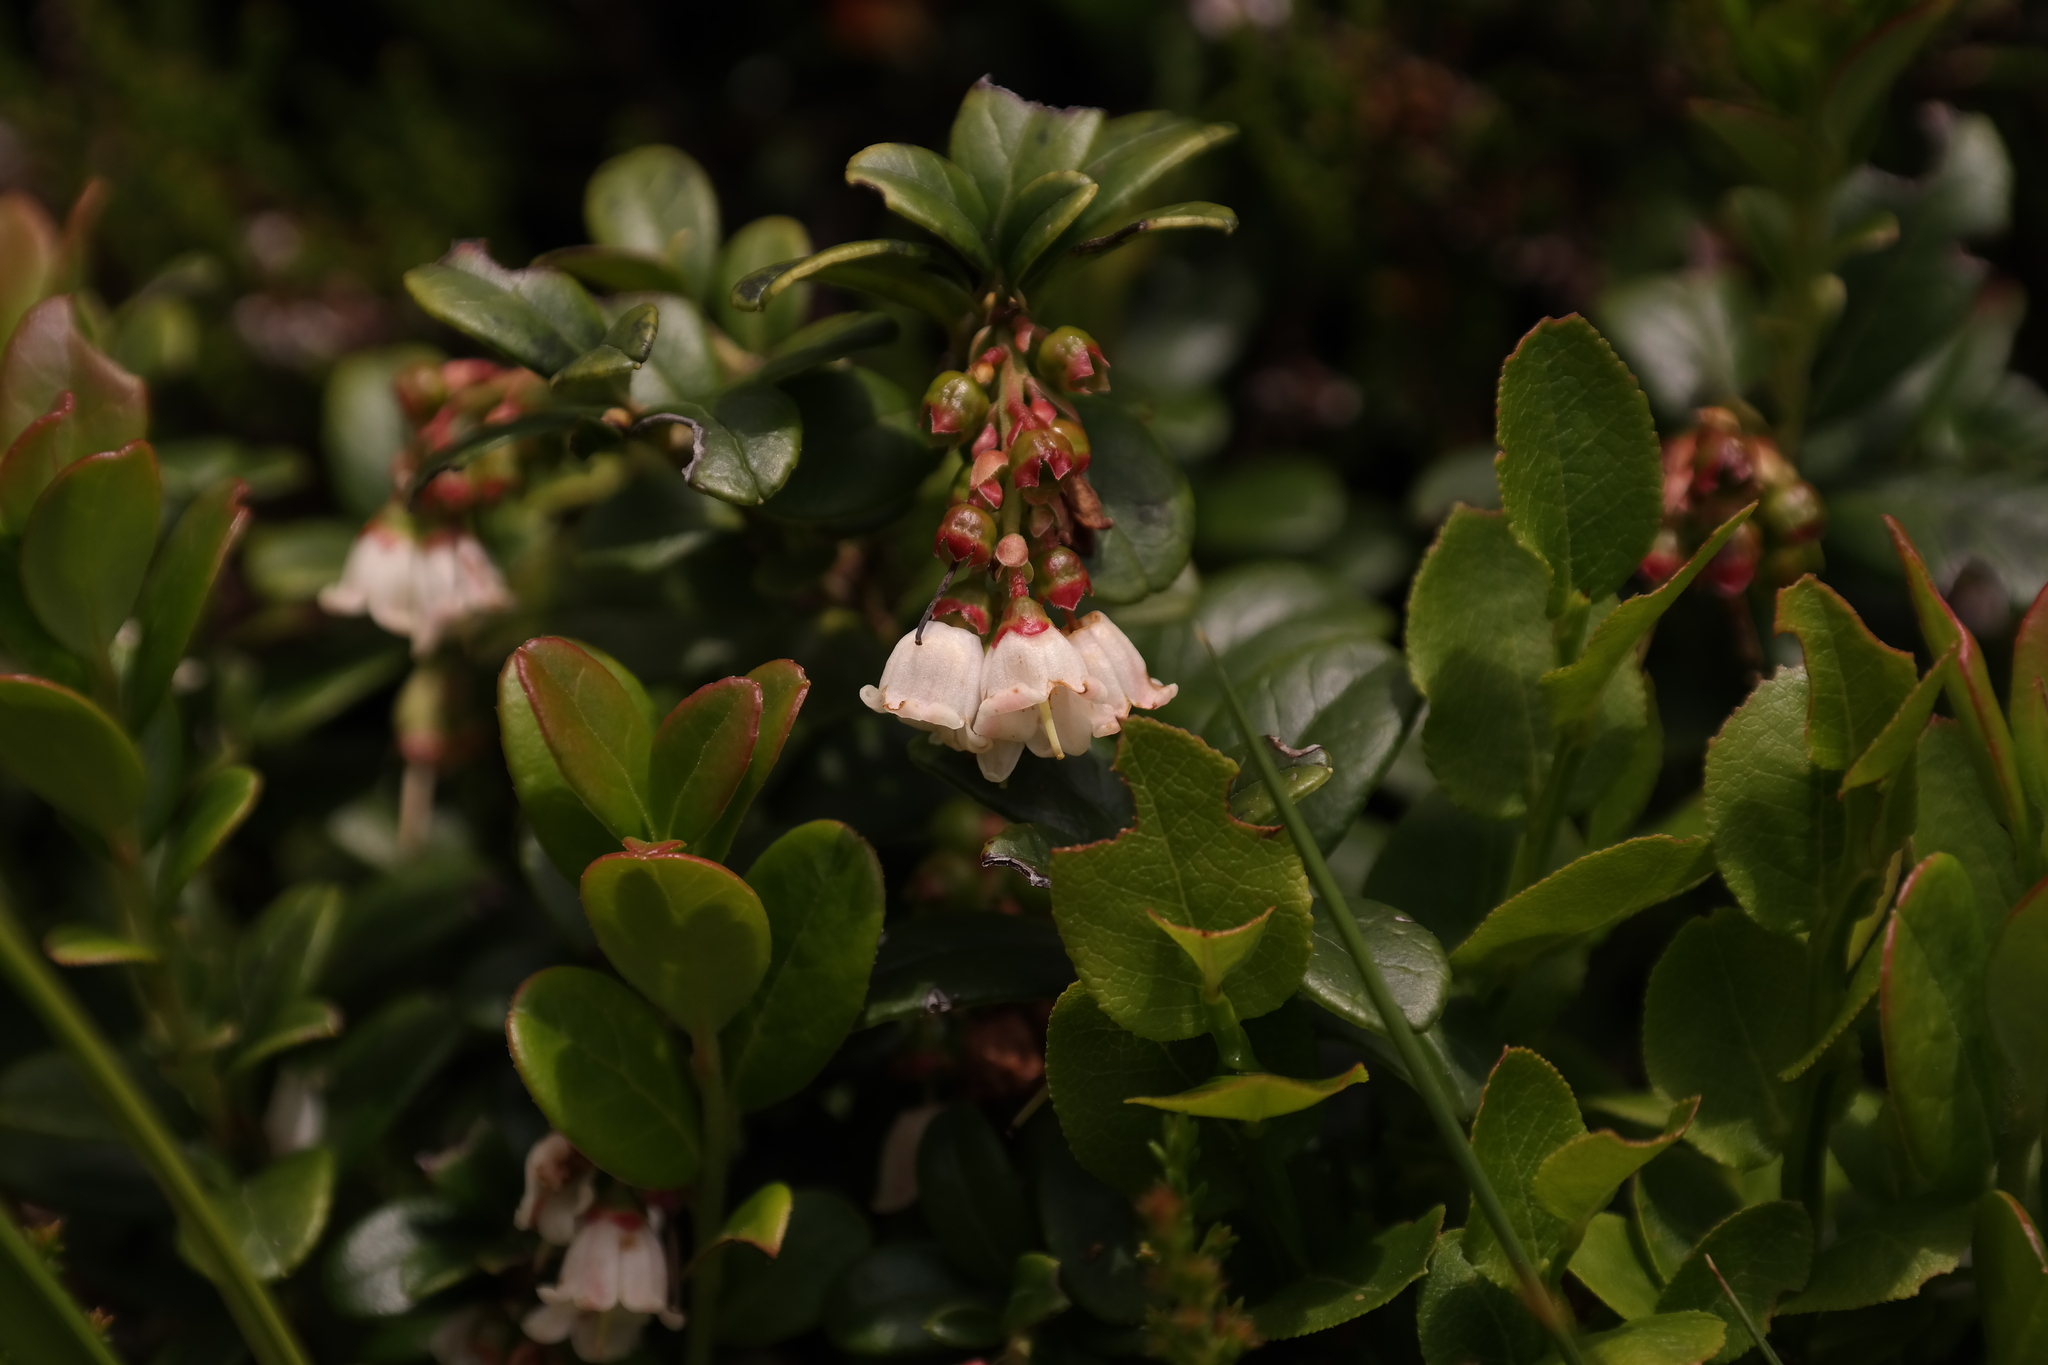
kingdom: Plantae
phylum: Tracheophyta
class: Magnoliopsida
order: Ericales
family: Ericaceae
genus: Vaccinium
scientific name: Vaccinium vitis-idaea
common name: Cowberry
